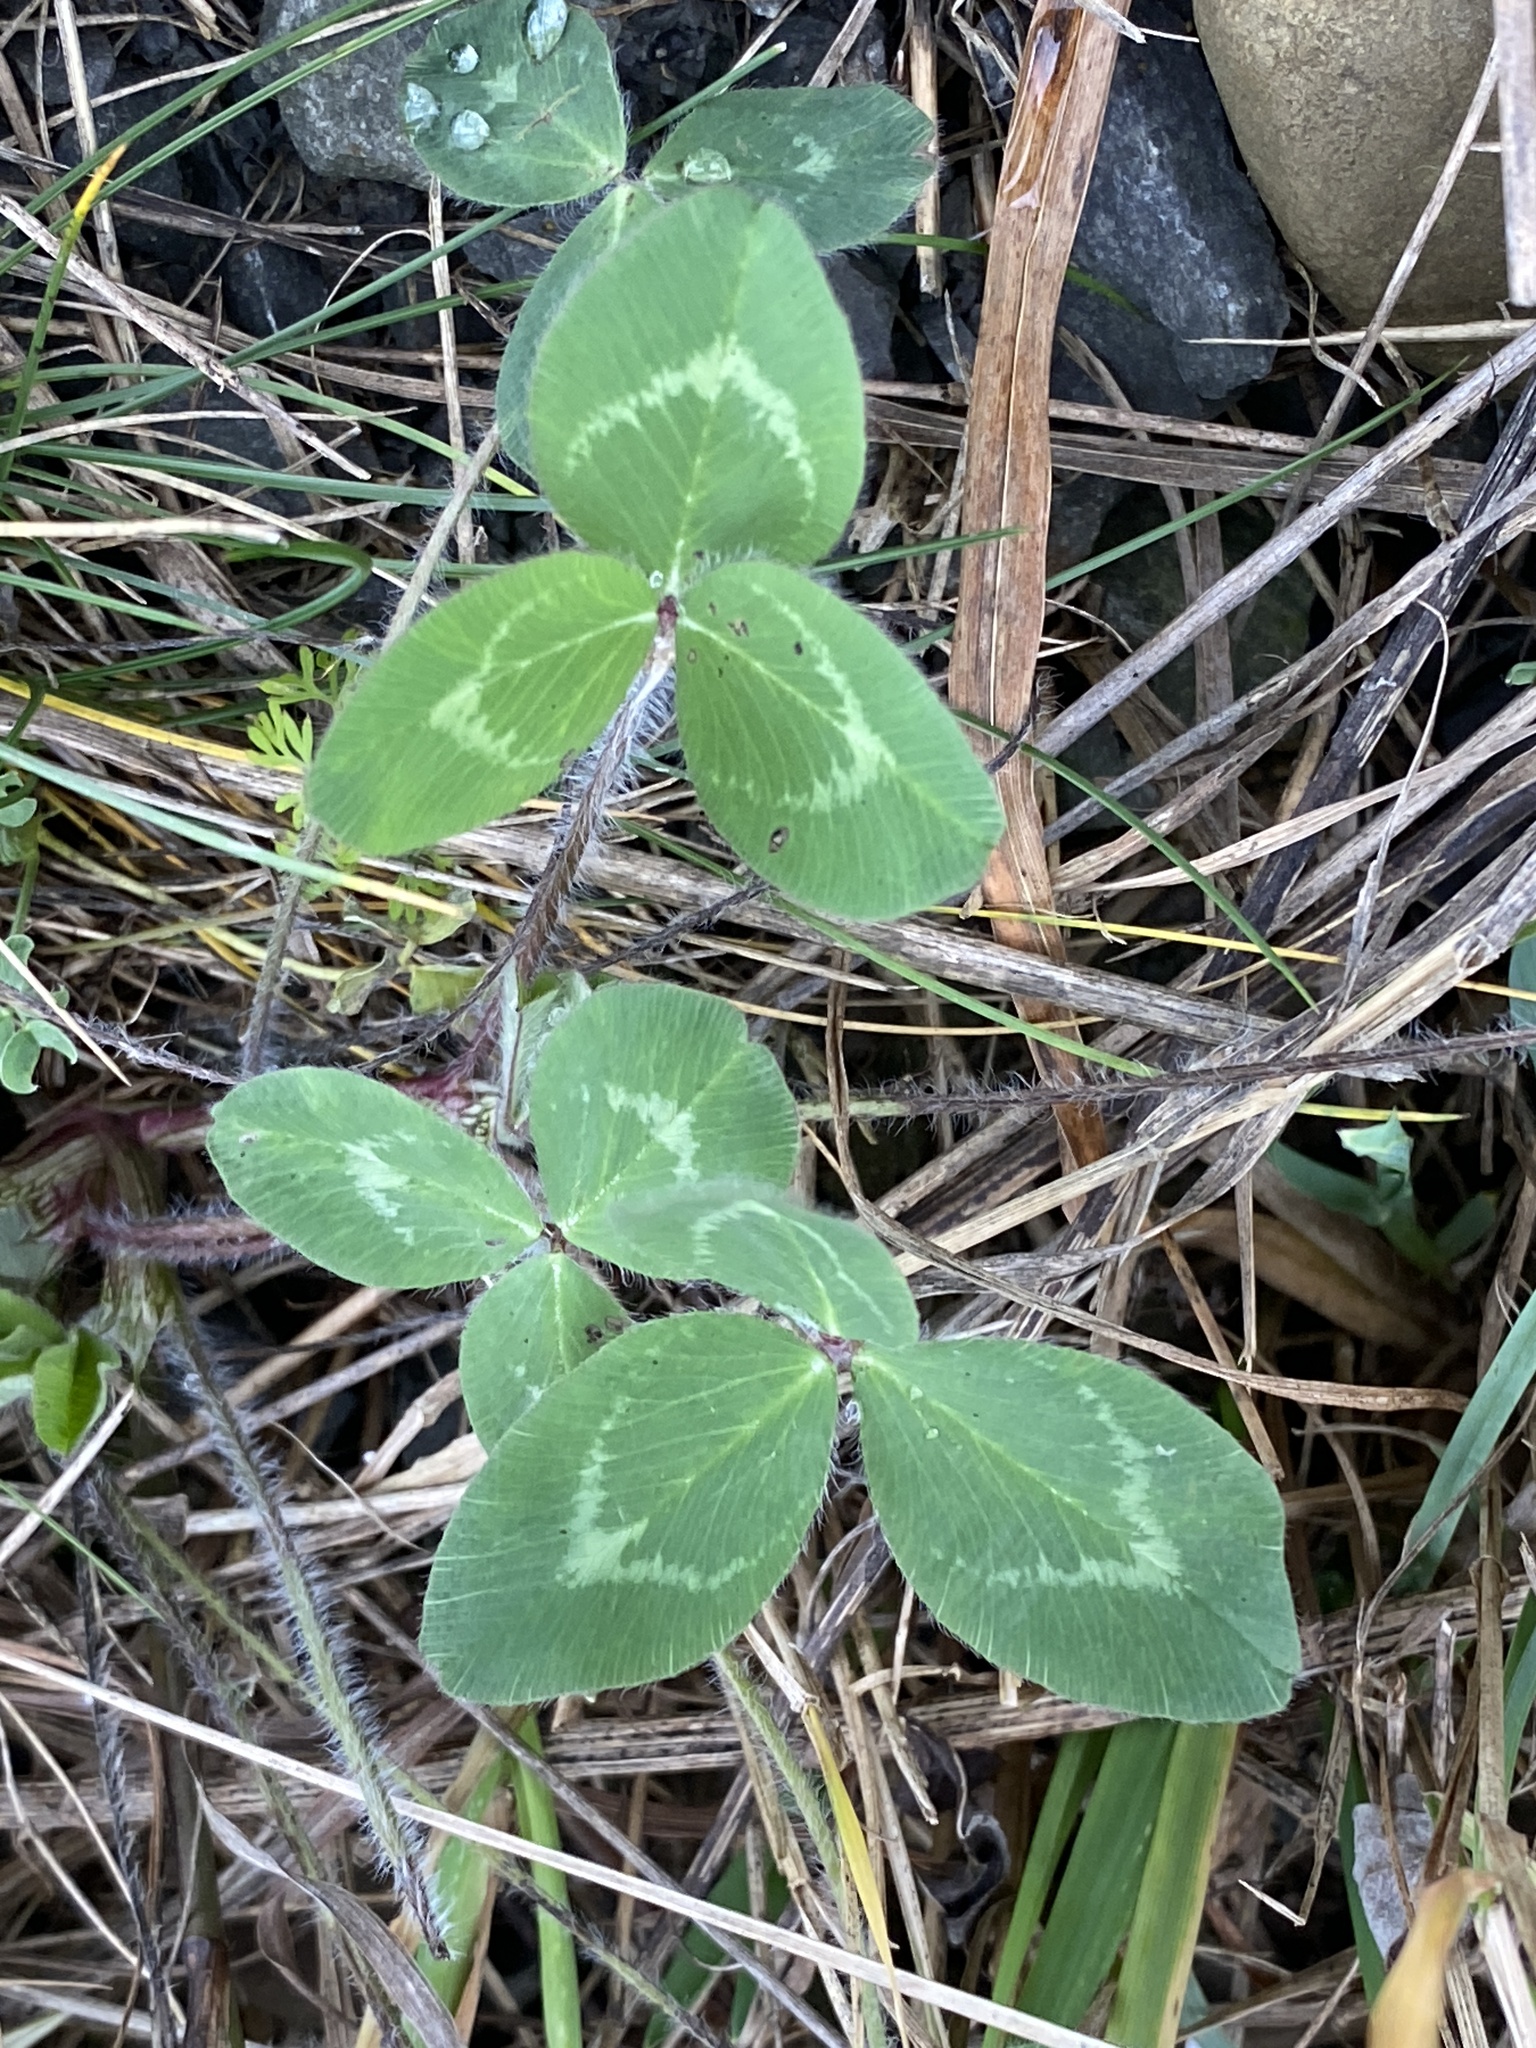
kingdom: Plantae
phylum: Tracheophyta
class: Magnoliopsida
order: Fabales
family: Fabaceae
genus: Trifolium
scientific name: Trifolium pratense
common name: Red clover
